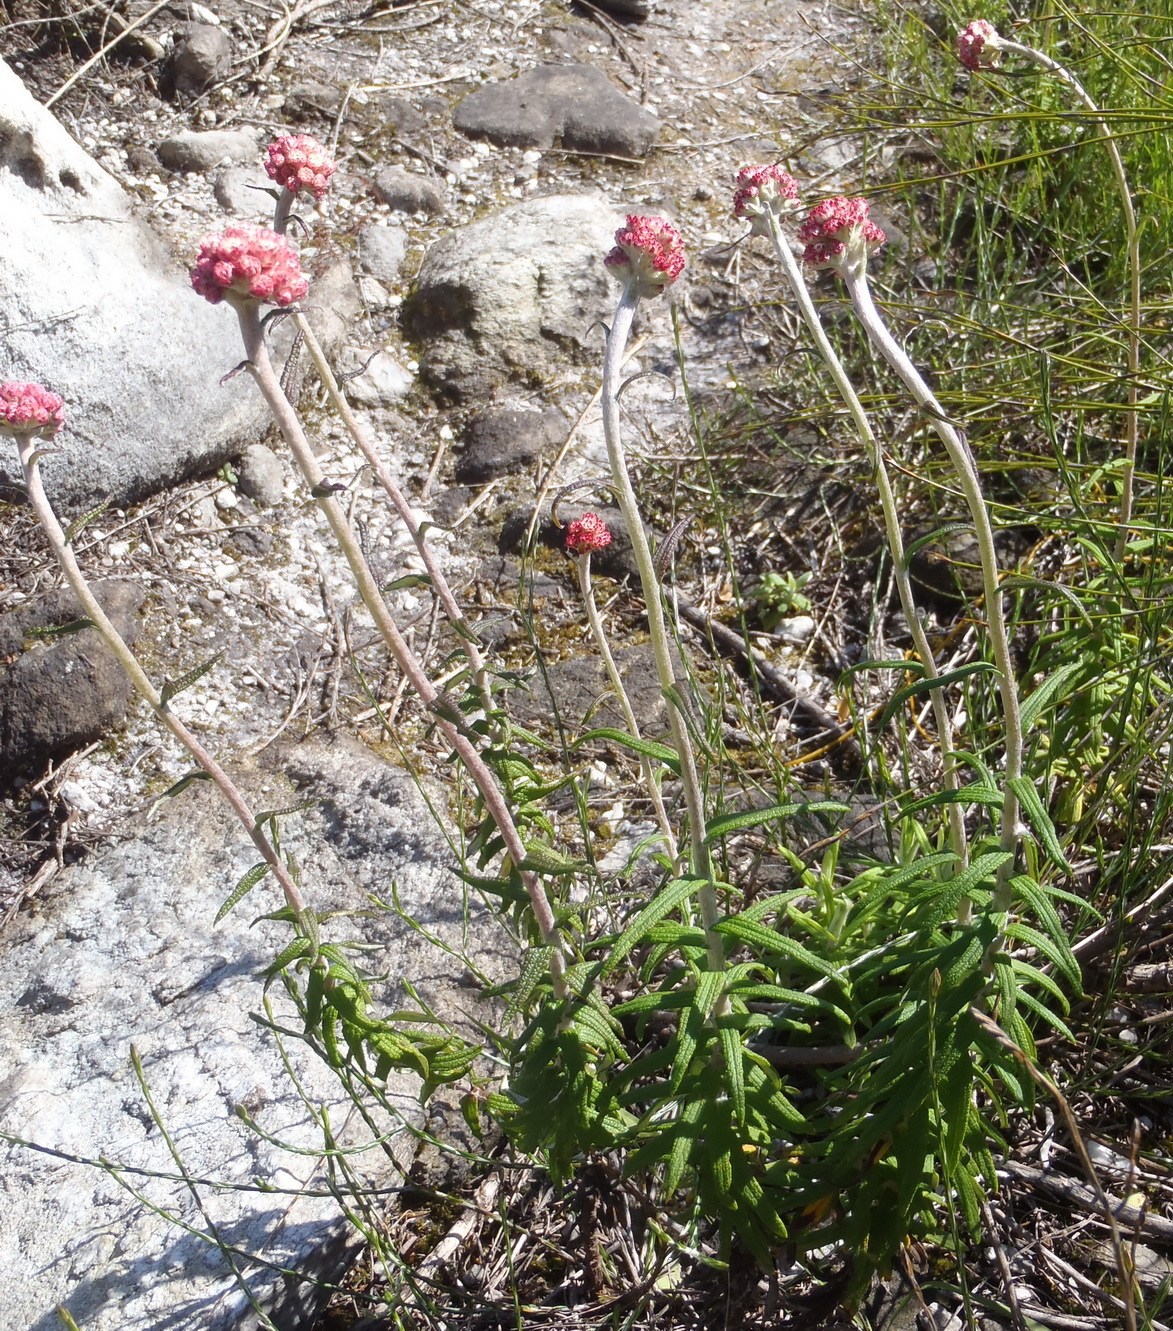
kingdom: Plantae
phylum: Tracheophyta
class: Magnoliopsida
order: Asterales
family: Asteraceae
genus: Helichrysum
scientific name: Helichrysum felinum
